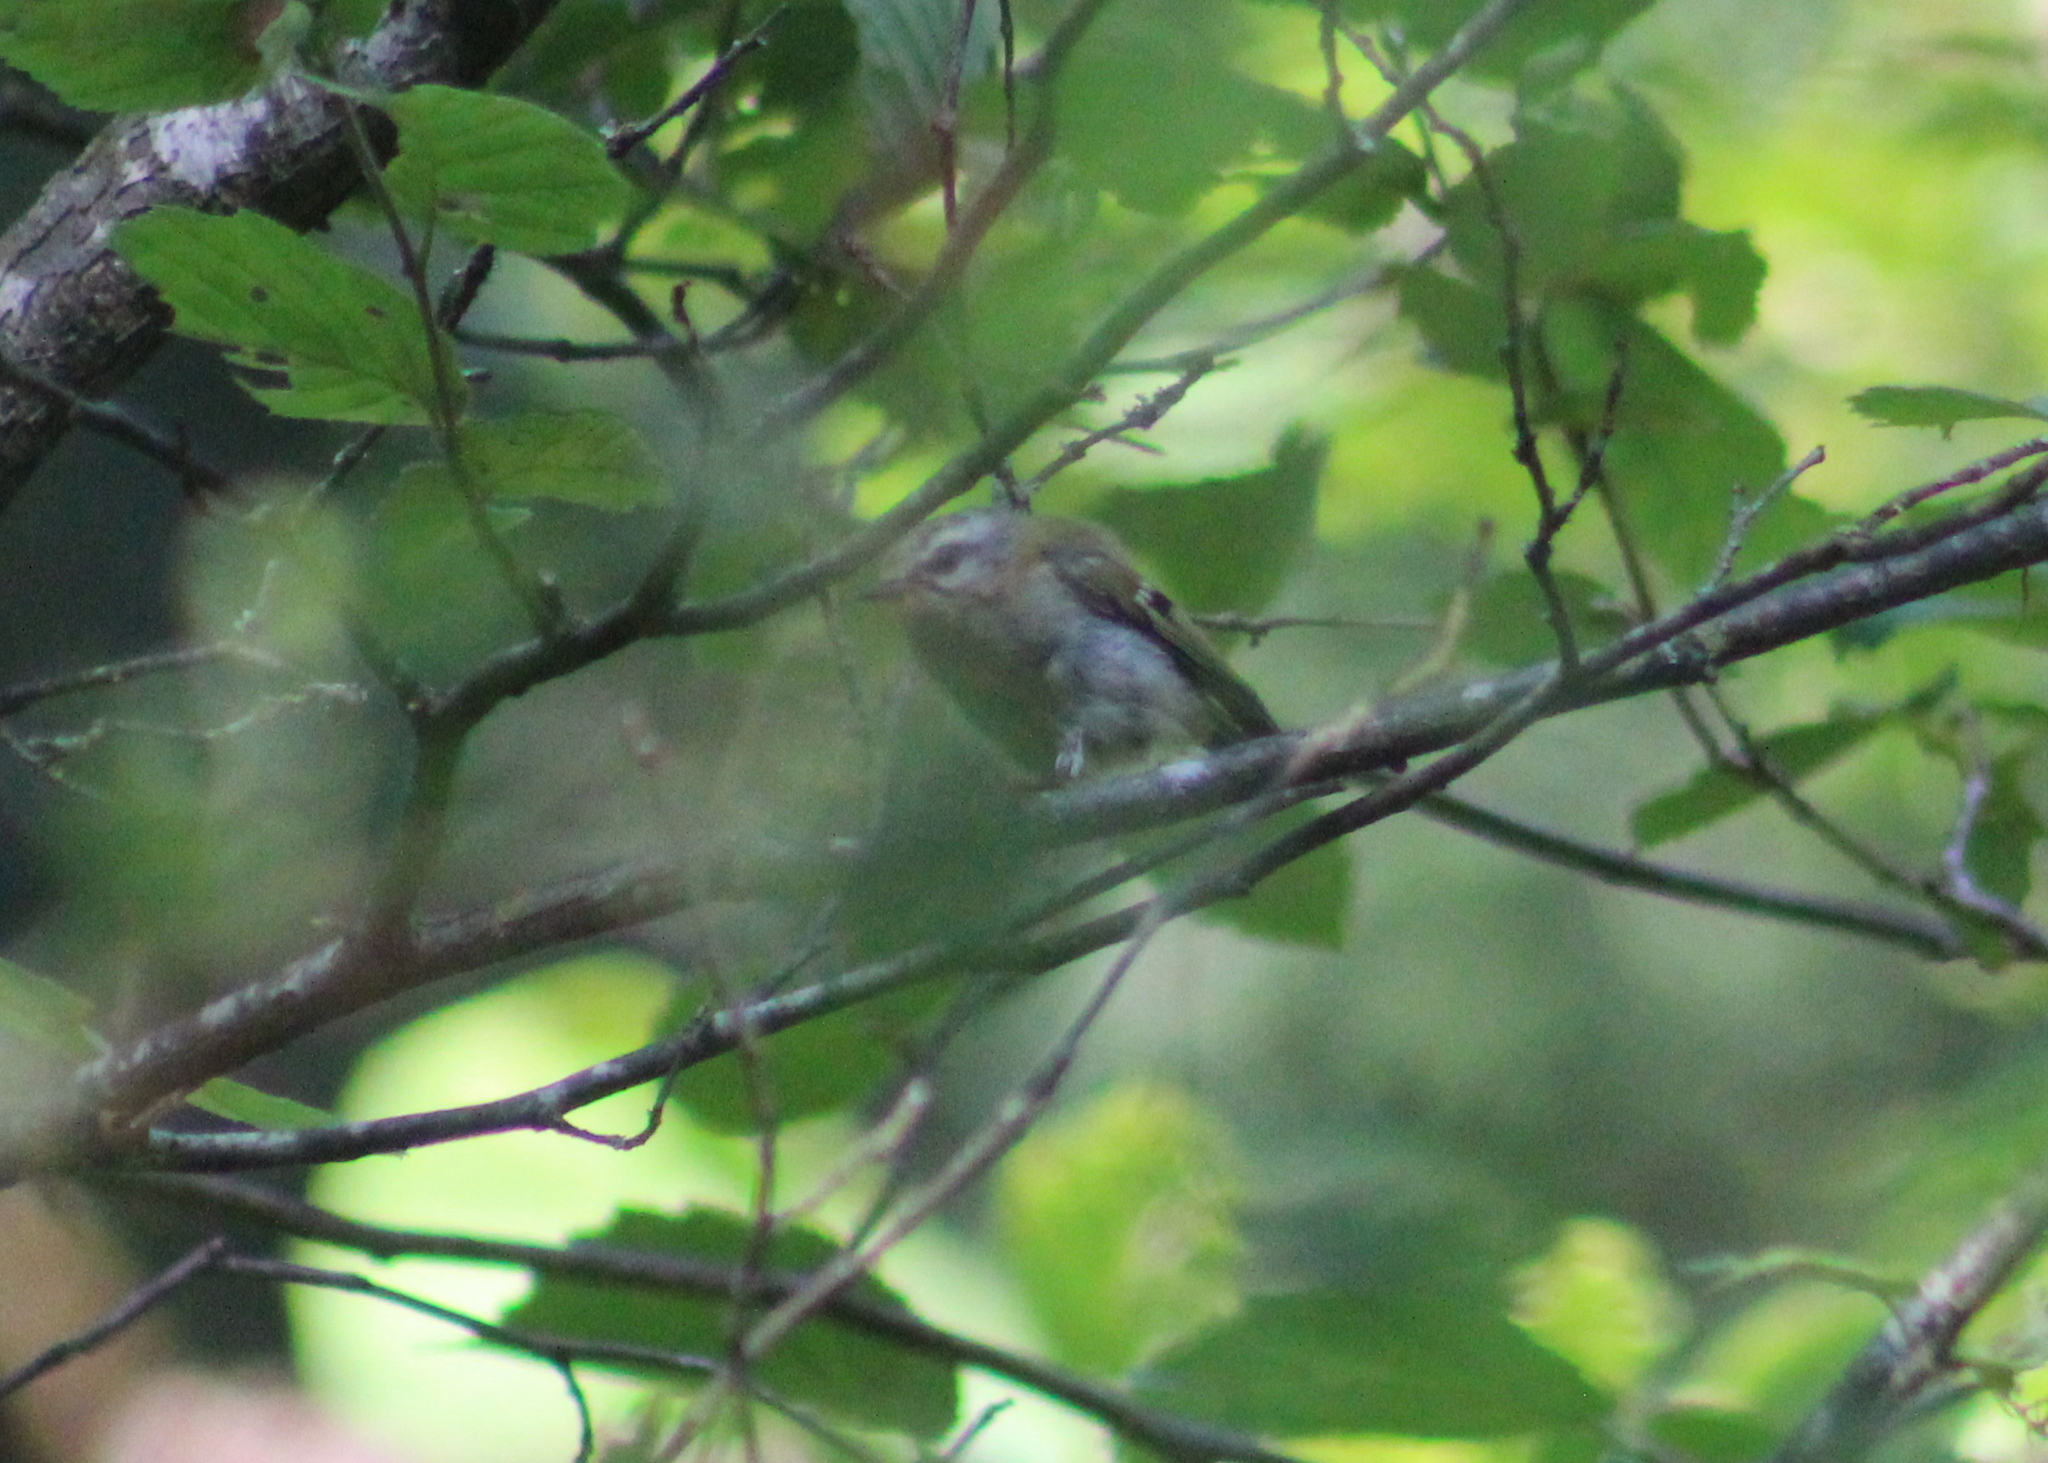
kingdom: Animalia
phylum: Chordata
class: Aves
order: Passeriformes
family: Regulidae
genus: Regulus
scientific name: Regulus ignicapilla
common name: Firecrest
